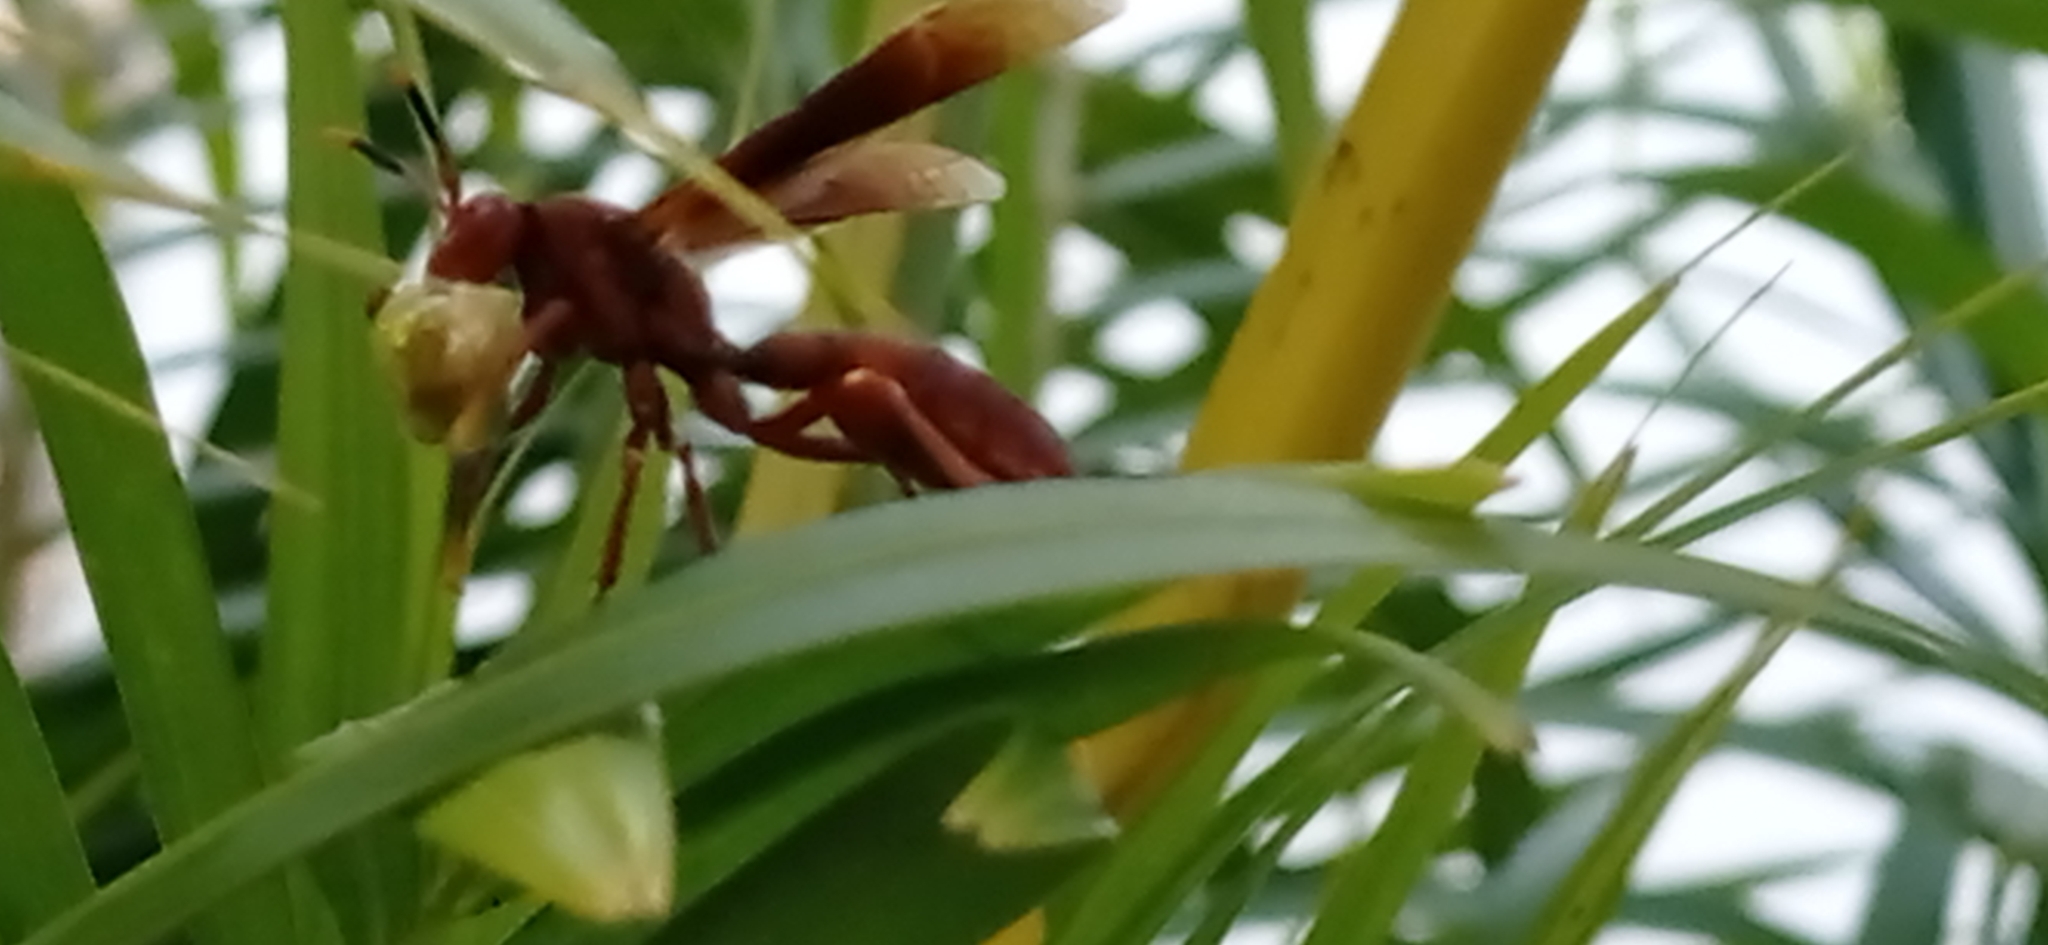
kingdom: Animalia
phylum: Arthropoda
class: Insecta
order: Hymenoptera
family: Eumenidae
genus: Polistes
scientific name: Polistes canadensis
